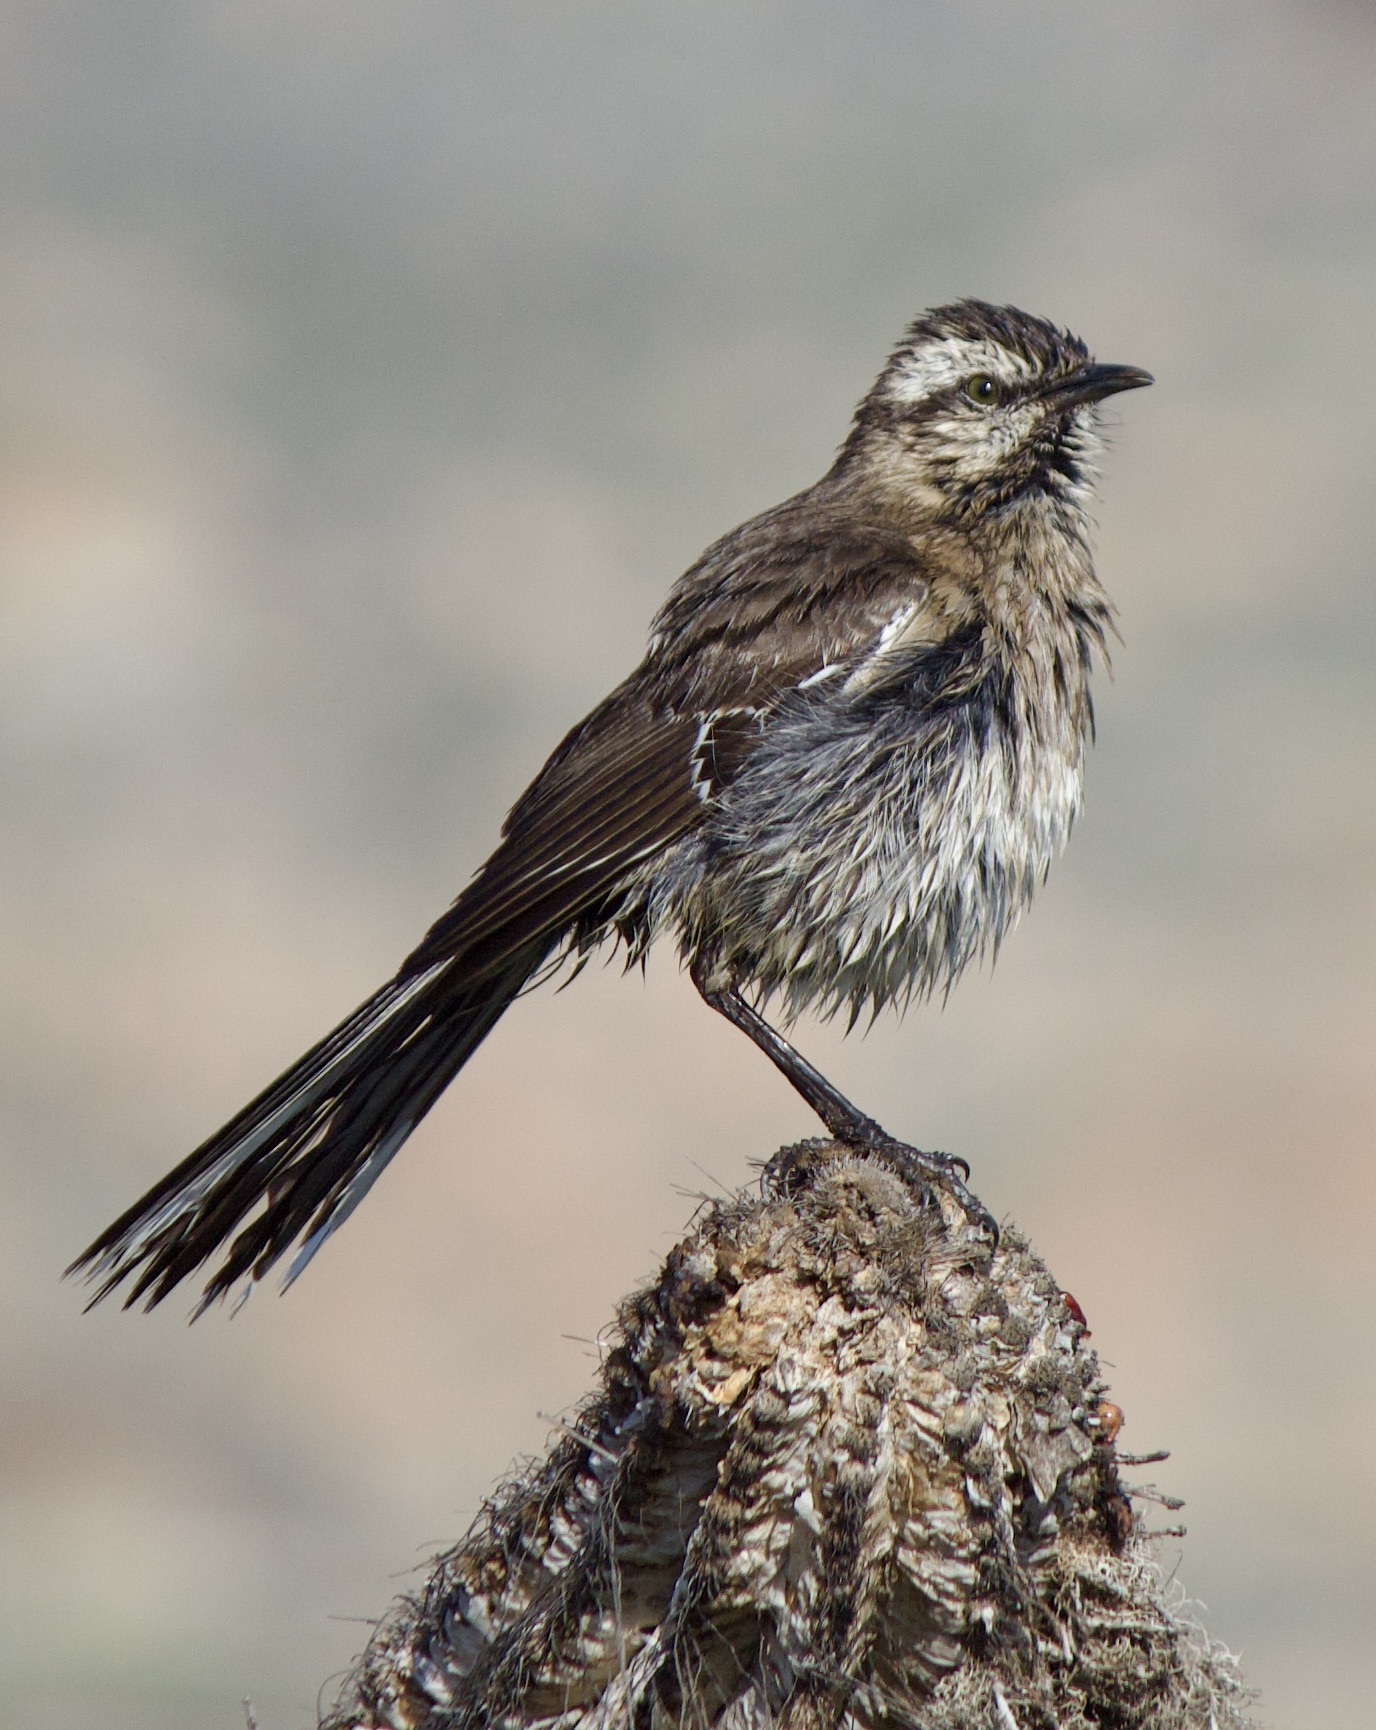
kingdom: Animalia
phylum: Chordata
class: Aves
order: Passeriformes
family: Mimidae
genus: Mimus
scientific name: Mimus thenca
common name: Chilean mockingbird
